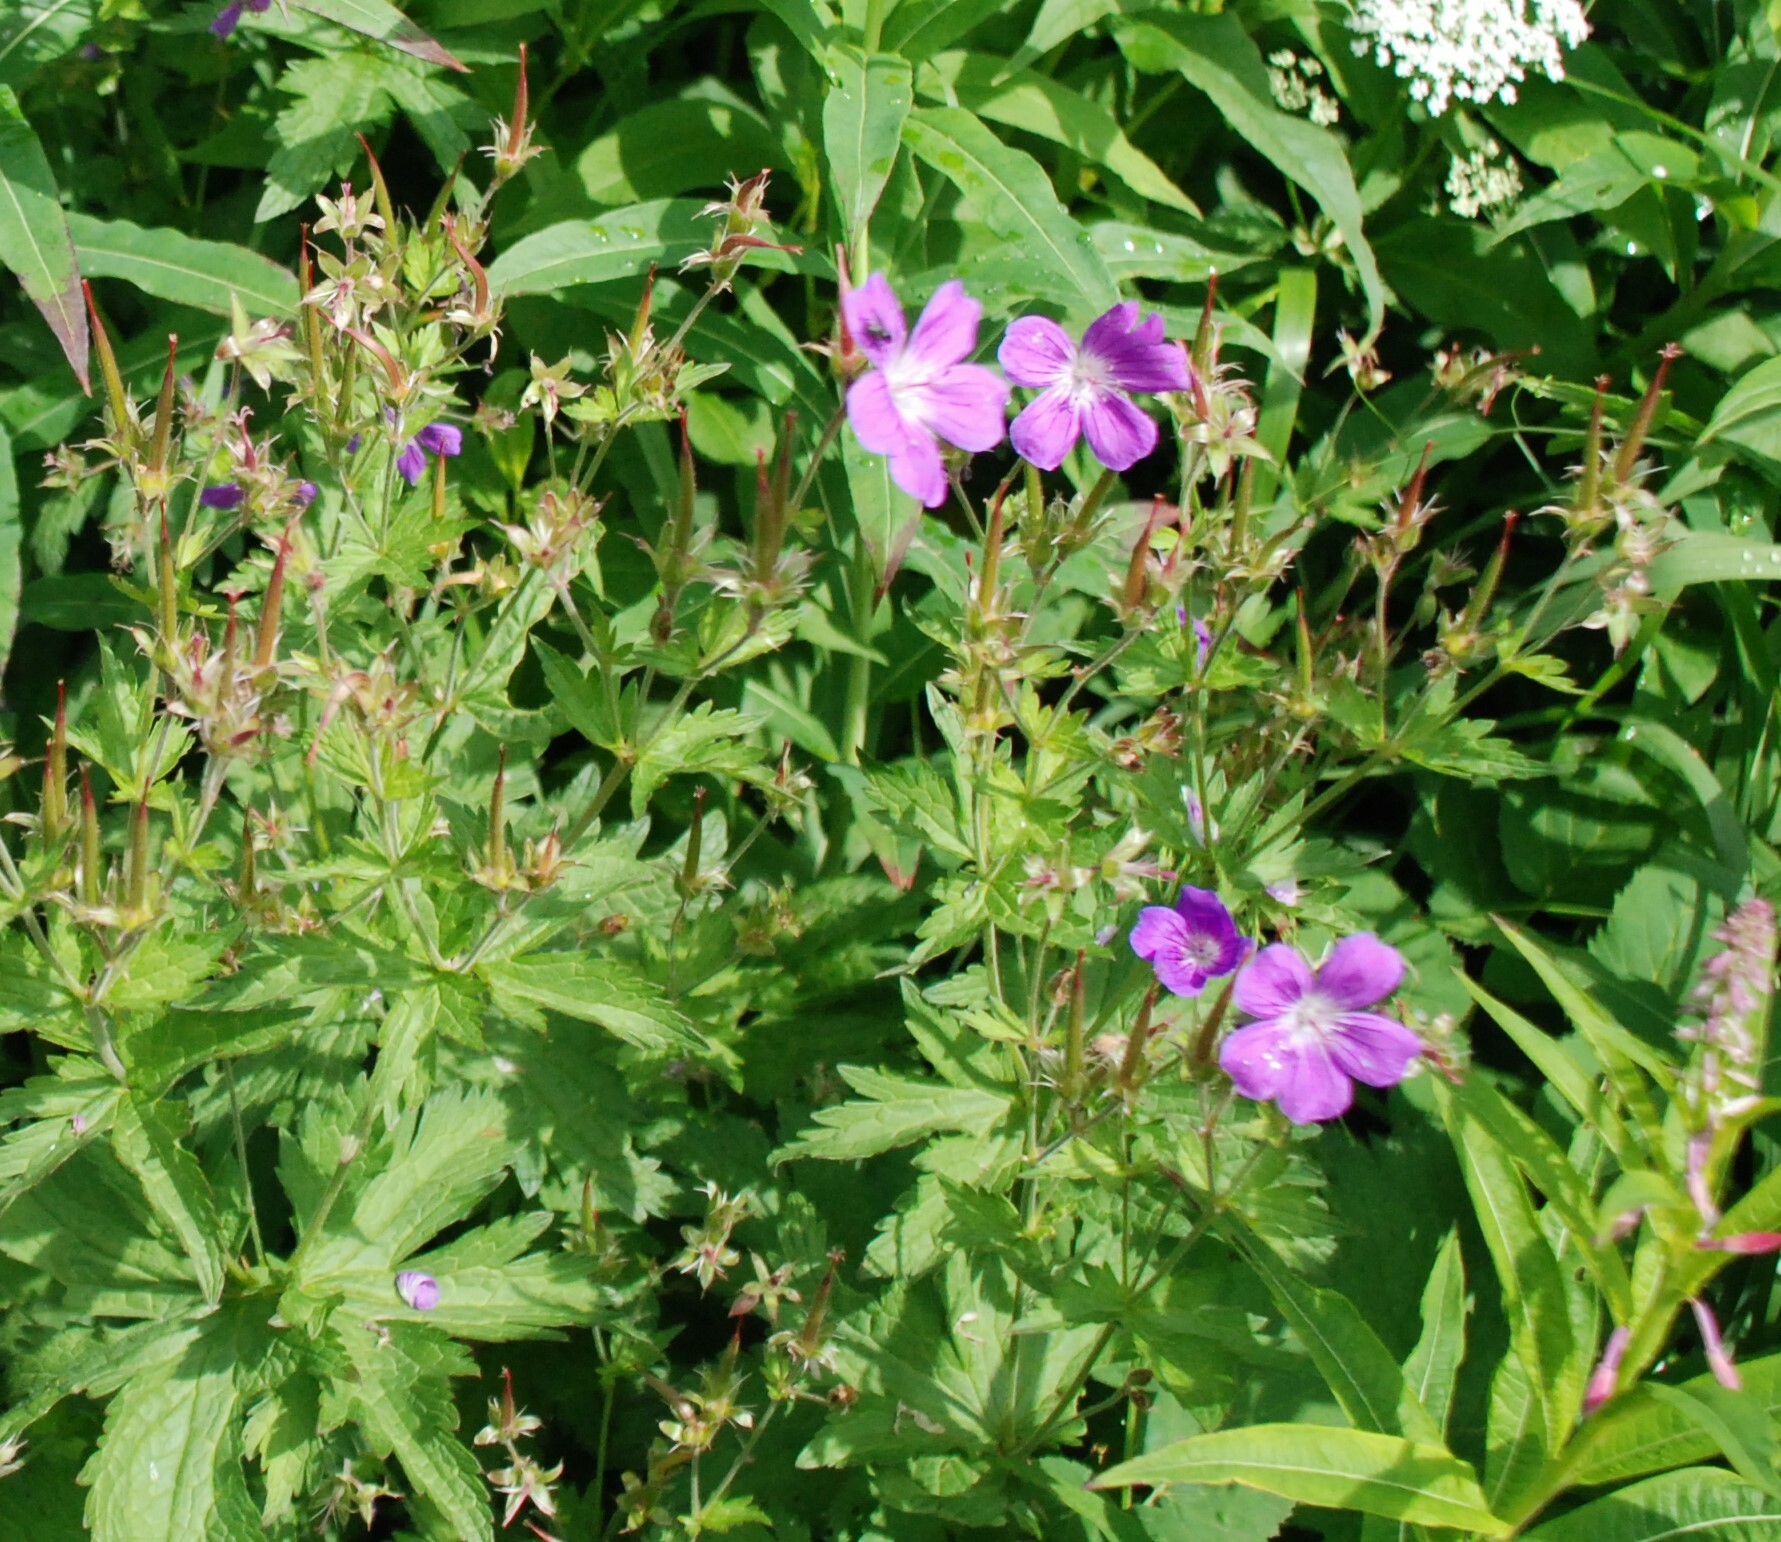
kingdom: Plantae
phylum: Tracheophyta
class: Magnoliopsida
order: Geraniales
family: Geraniaceae
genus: Geranium
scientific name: Geranium sylvaticum
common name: Wood crane's-bill
